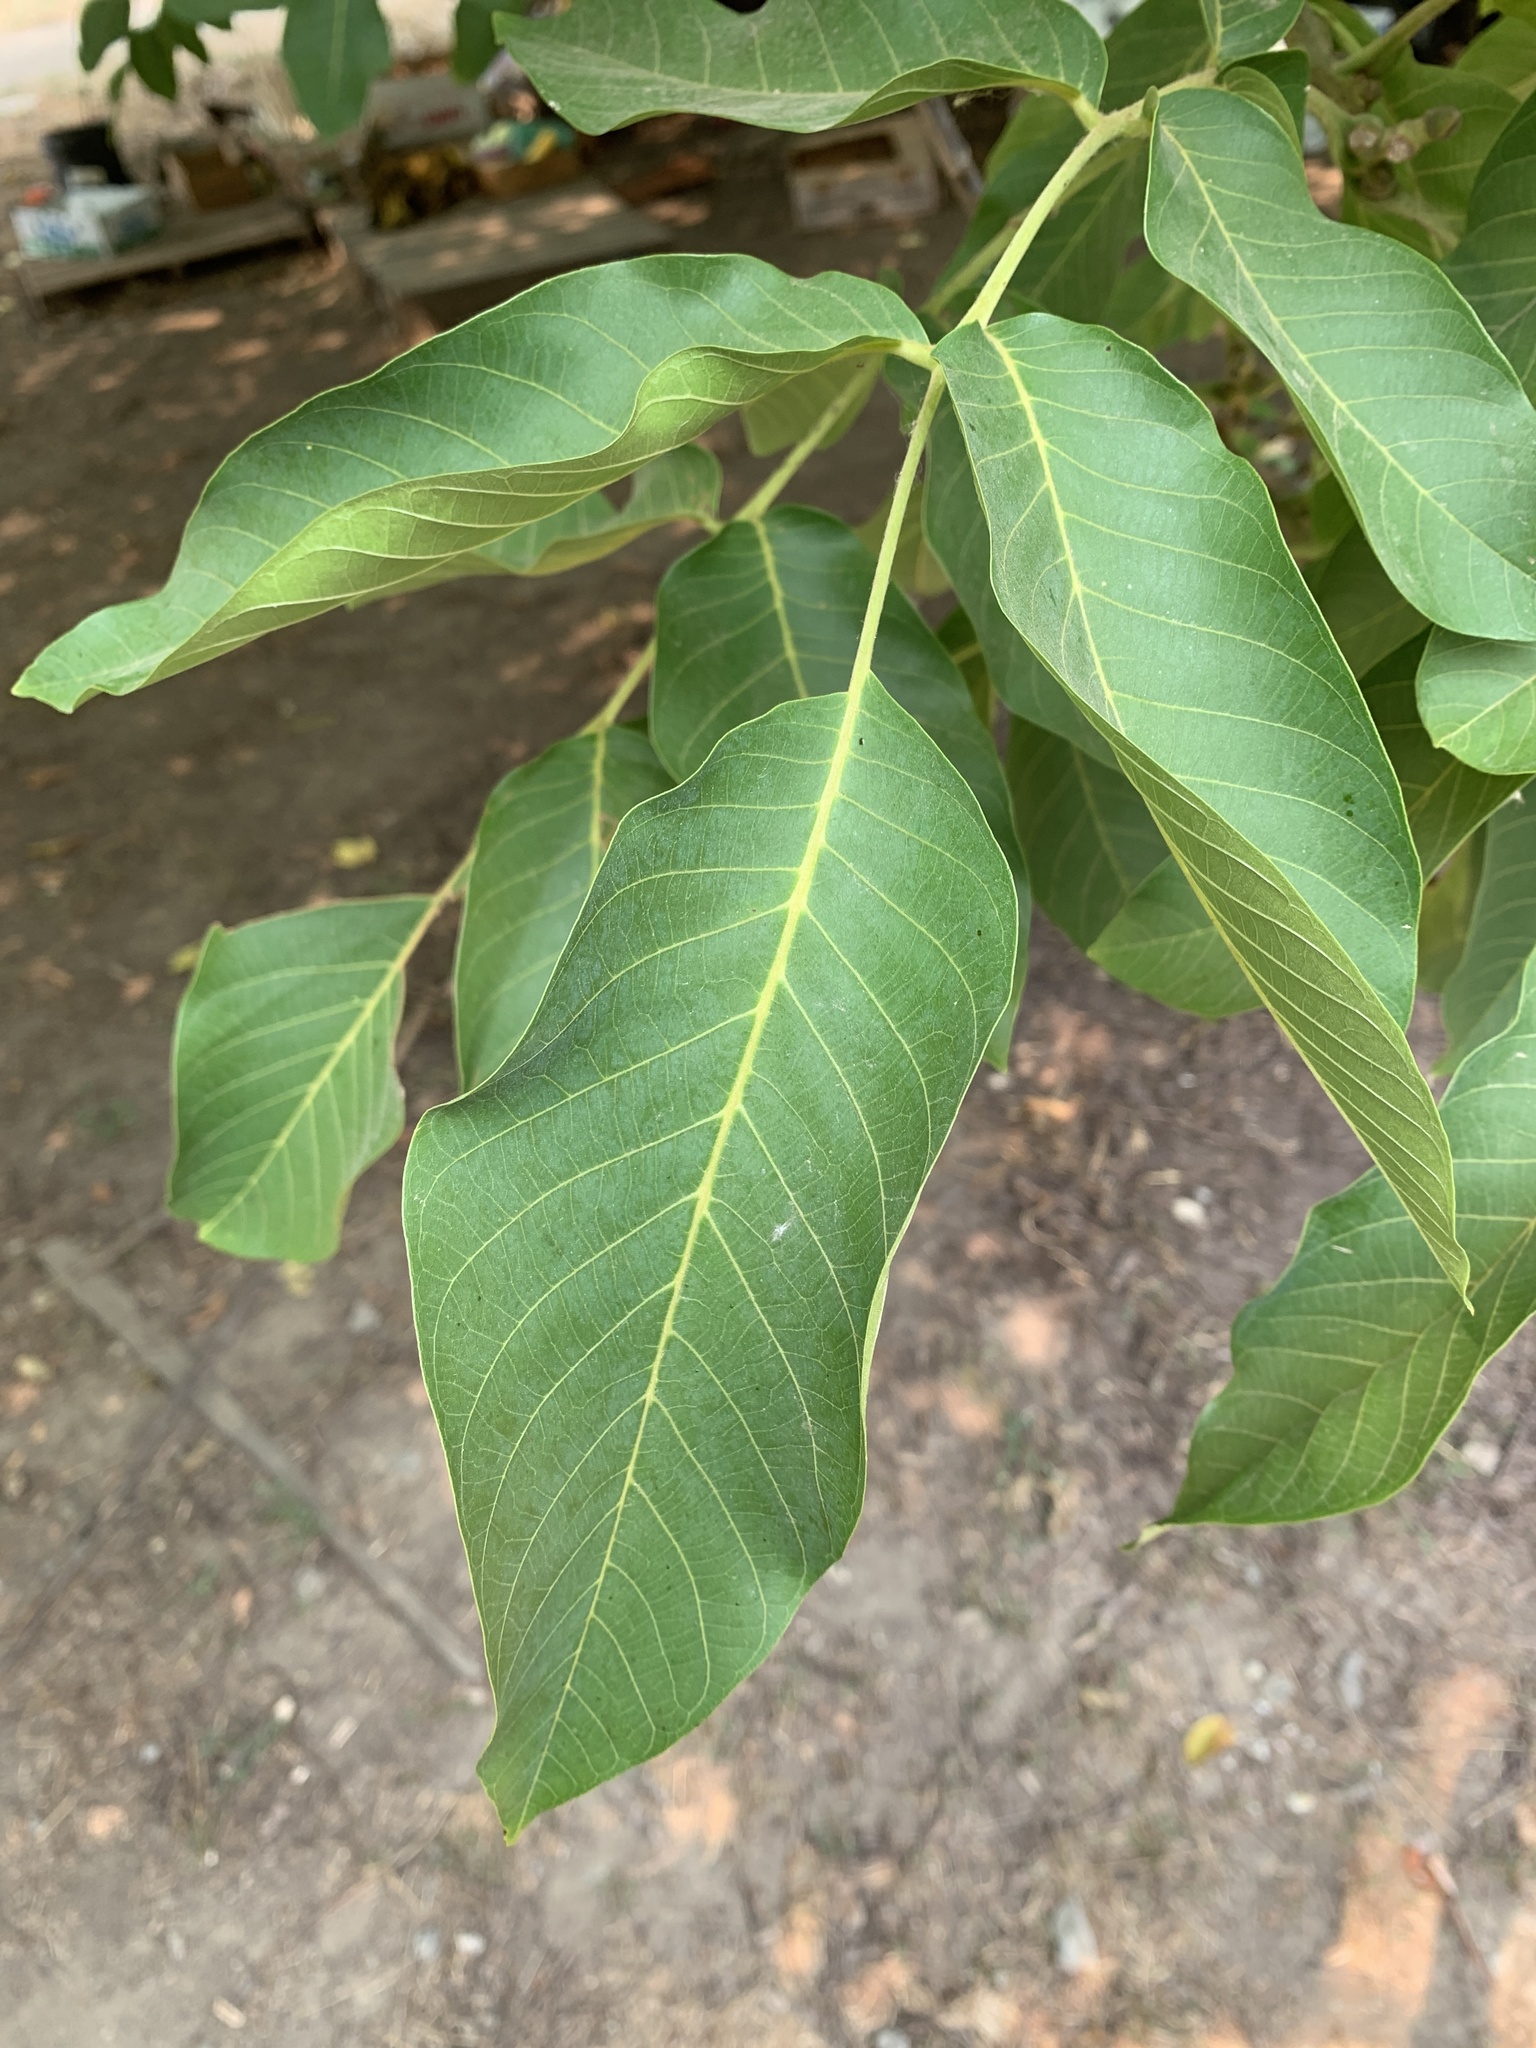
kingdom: Plantae
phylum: Tracheophyta
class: Magnoliopsida
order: Fagales
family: Juglandaceae
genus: Juglans
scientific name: Juglans regia
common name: Walnut
